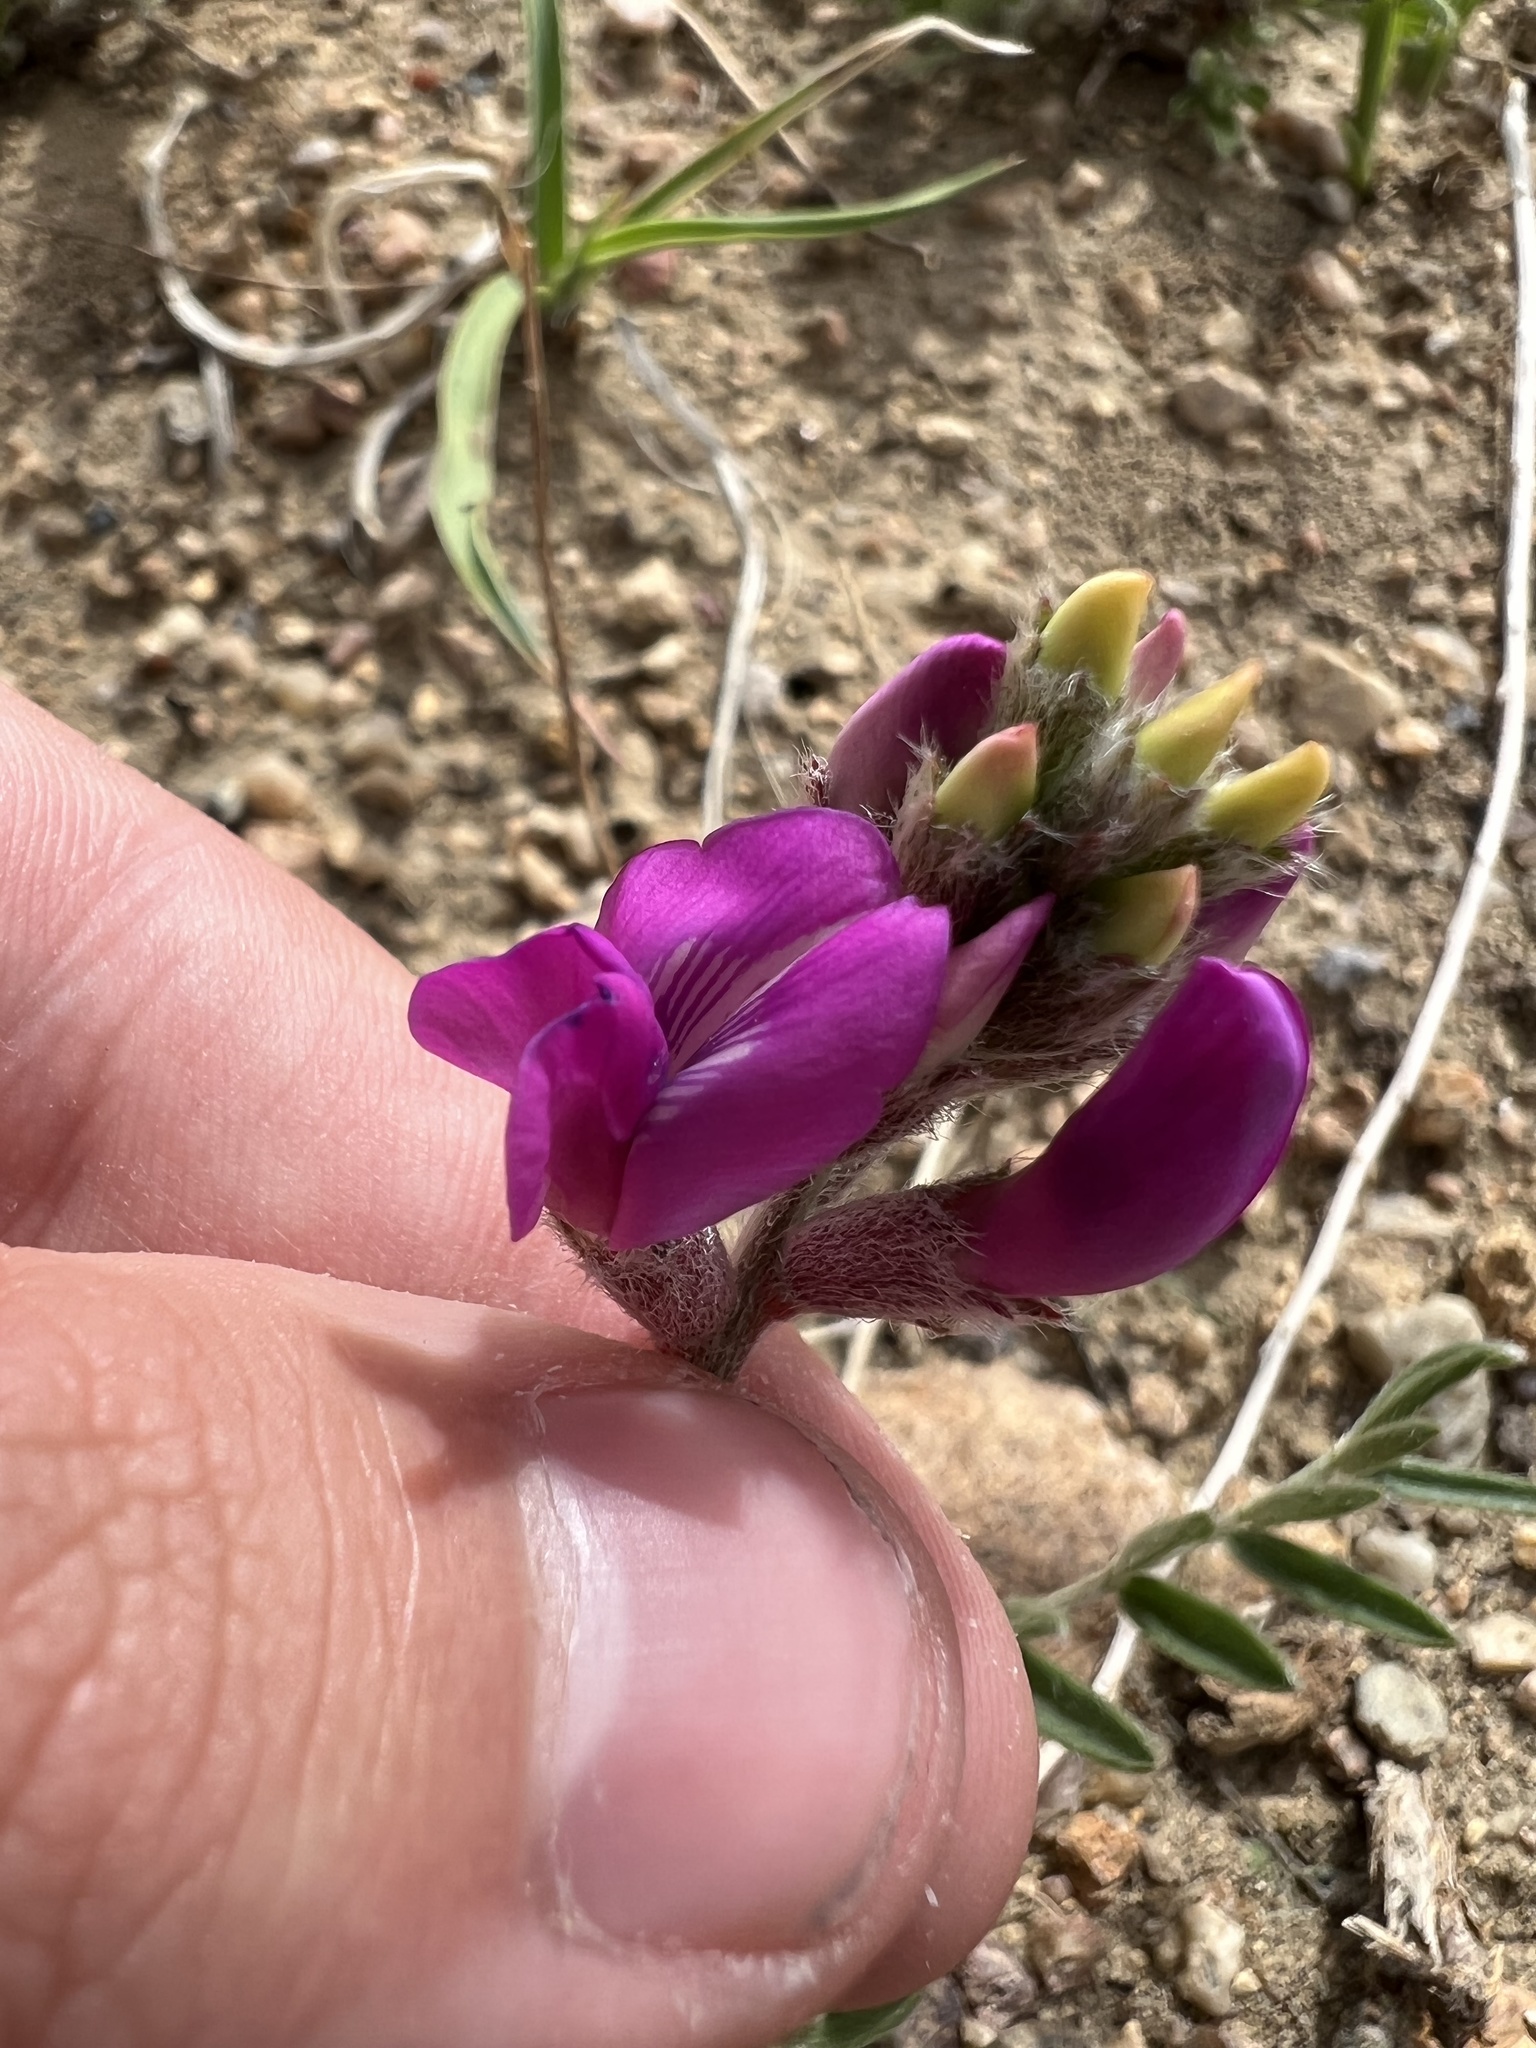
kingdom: Plantae
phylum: Tracheophyta
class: Magnoliopsida
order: Fabales
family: Fabaceae
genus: Oxytropis
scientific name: Oxytropis lambertii
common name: Purple locoweed
